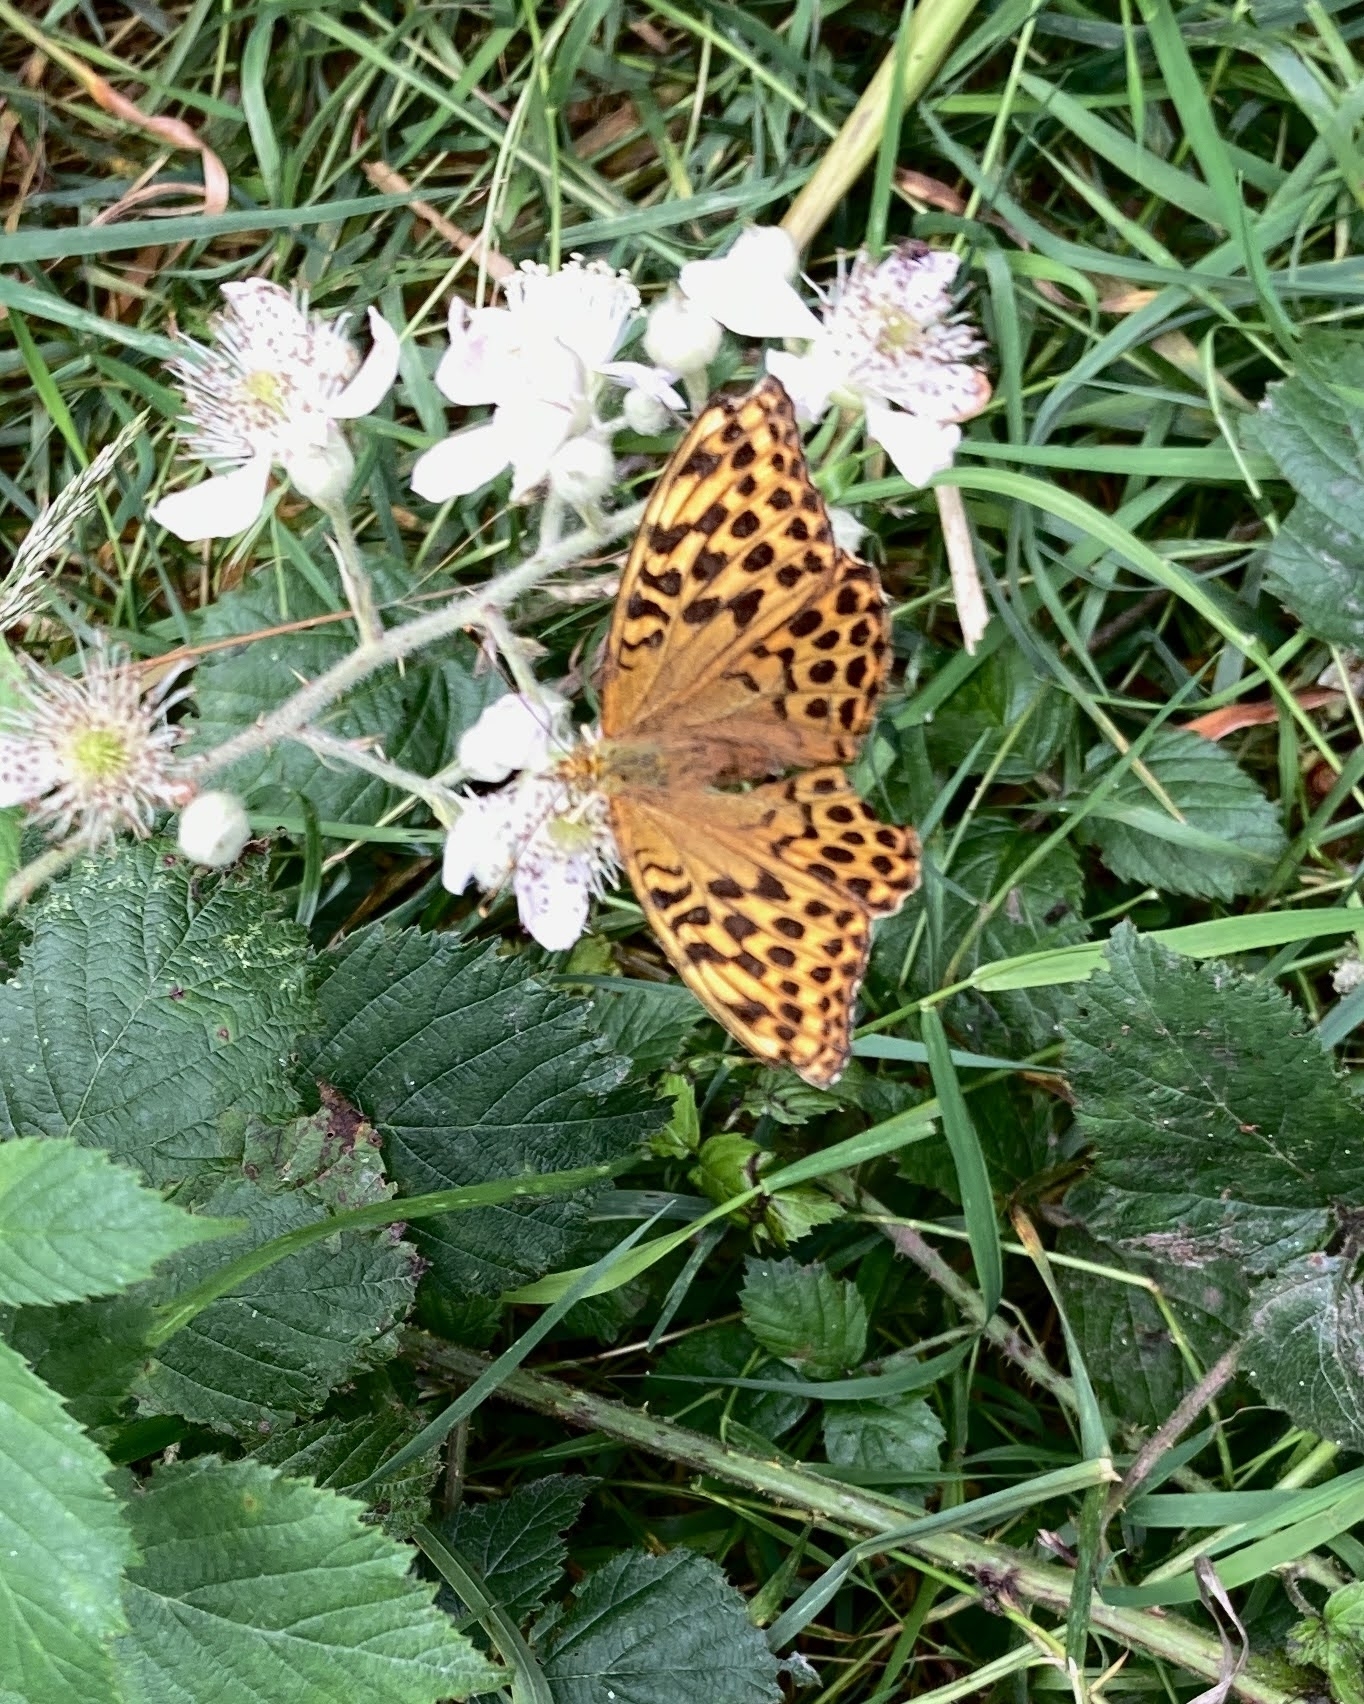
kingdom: Animalia
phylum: Arthropoda
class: Insecta
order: Lepidoptera
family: Nymphalidae
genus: Argynnis
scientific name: Argynnis paphia
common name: Silver-washed fritillary
